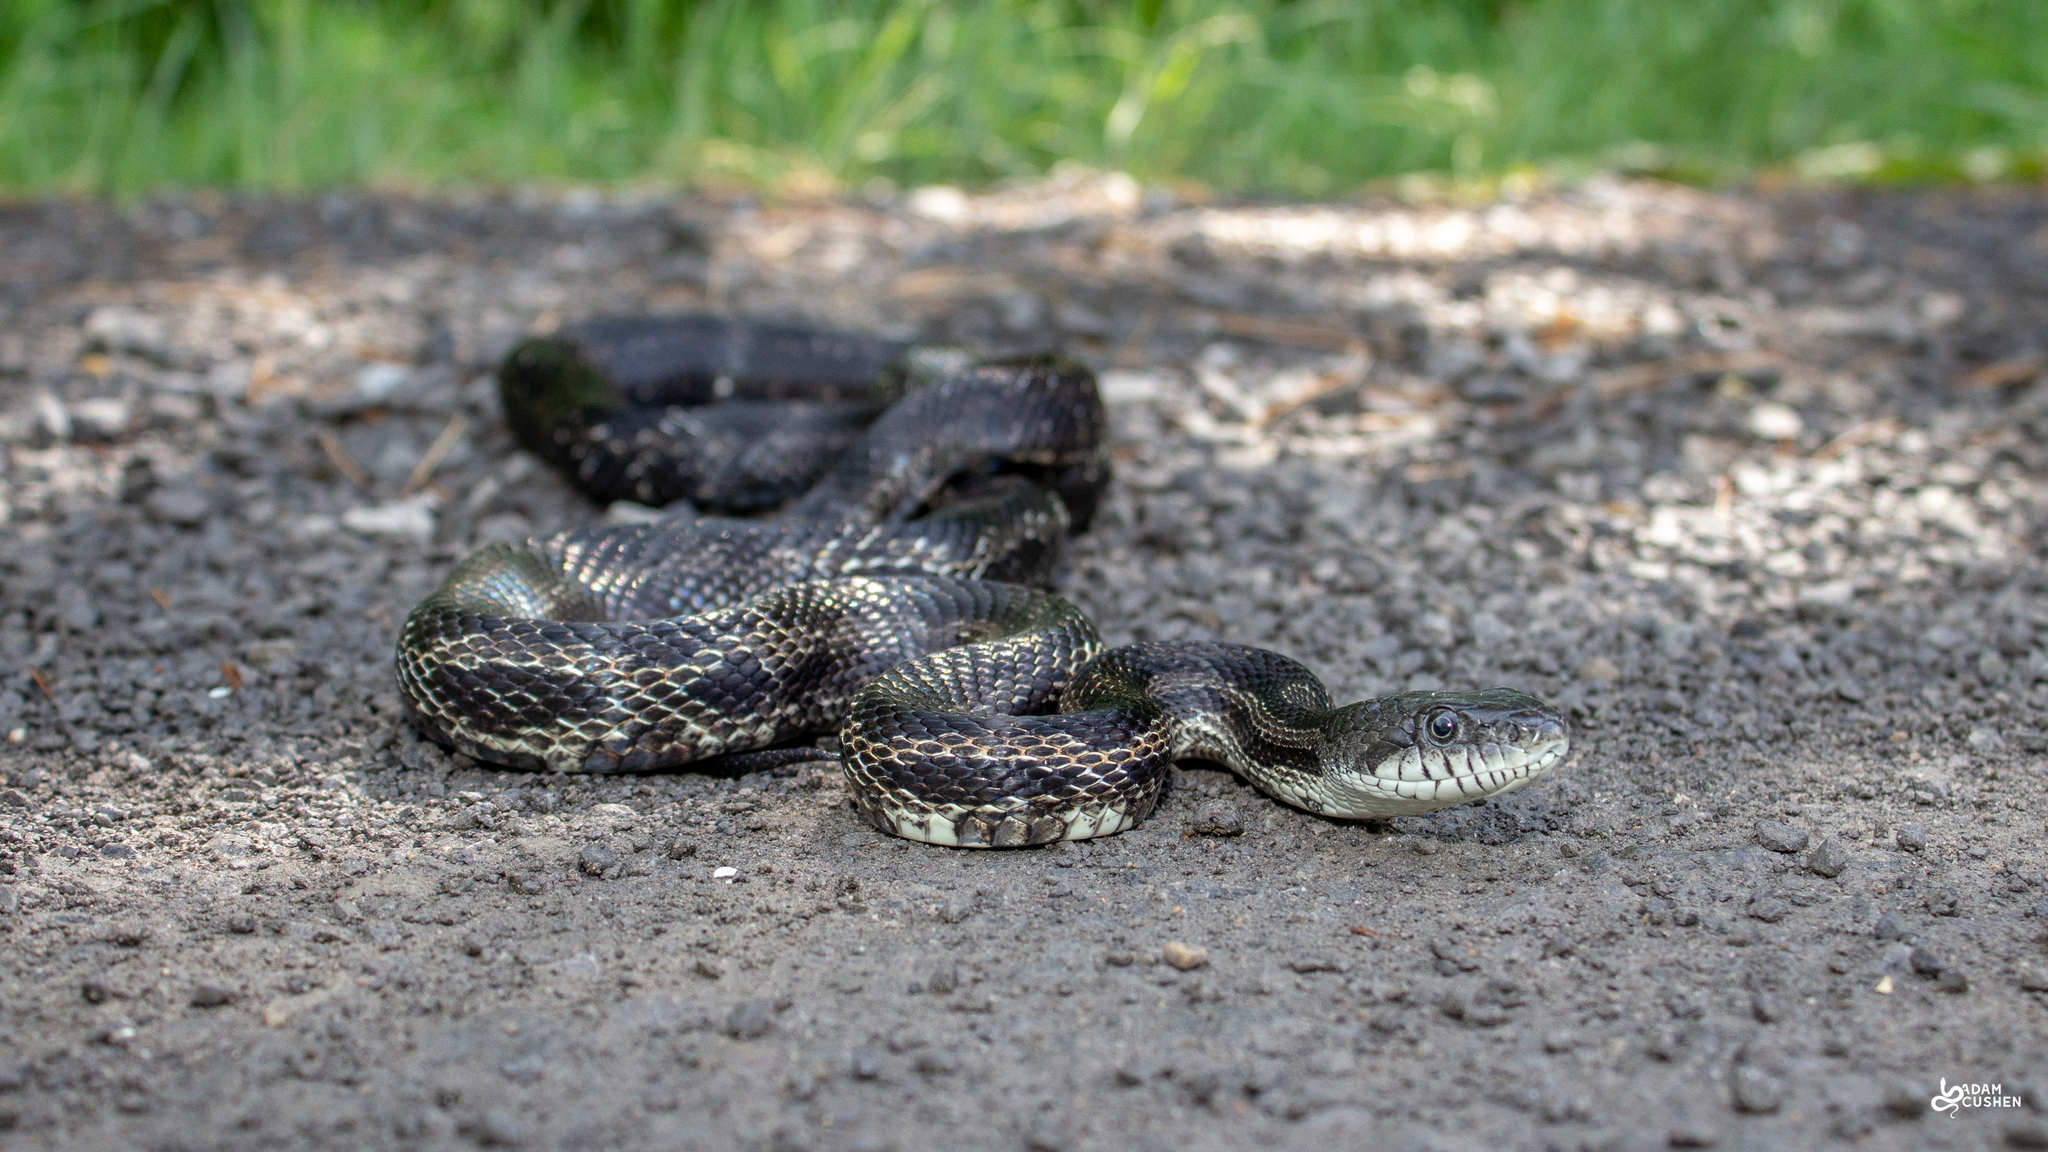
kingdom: Animalia
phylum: Chordata
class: Squamata
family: Colubridae
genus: Pantherophis
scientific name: Pantherophis spiloides
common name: Gray rat snake
